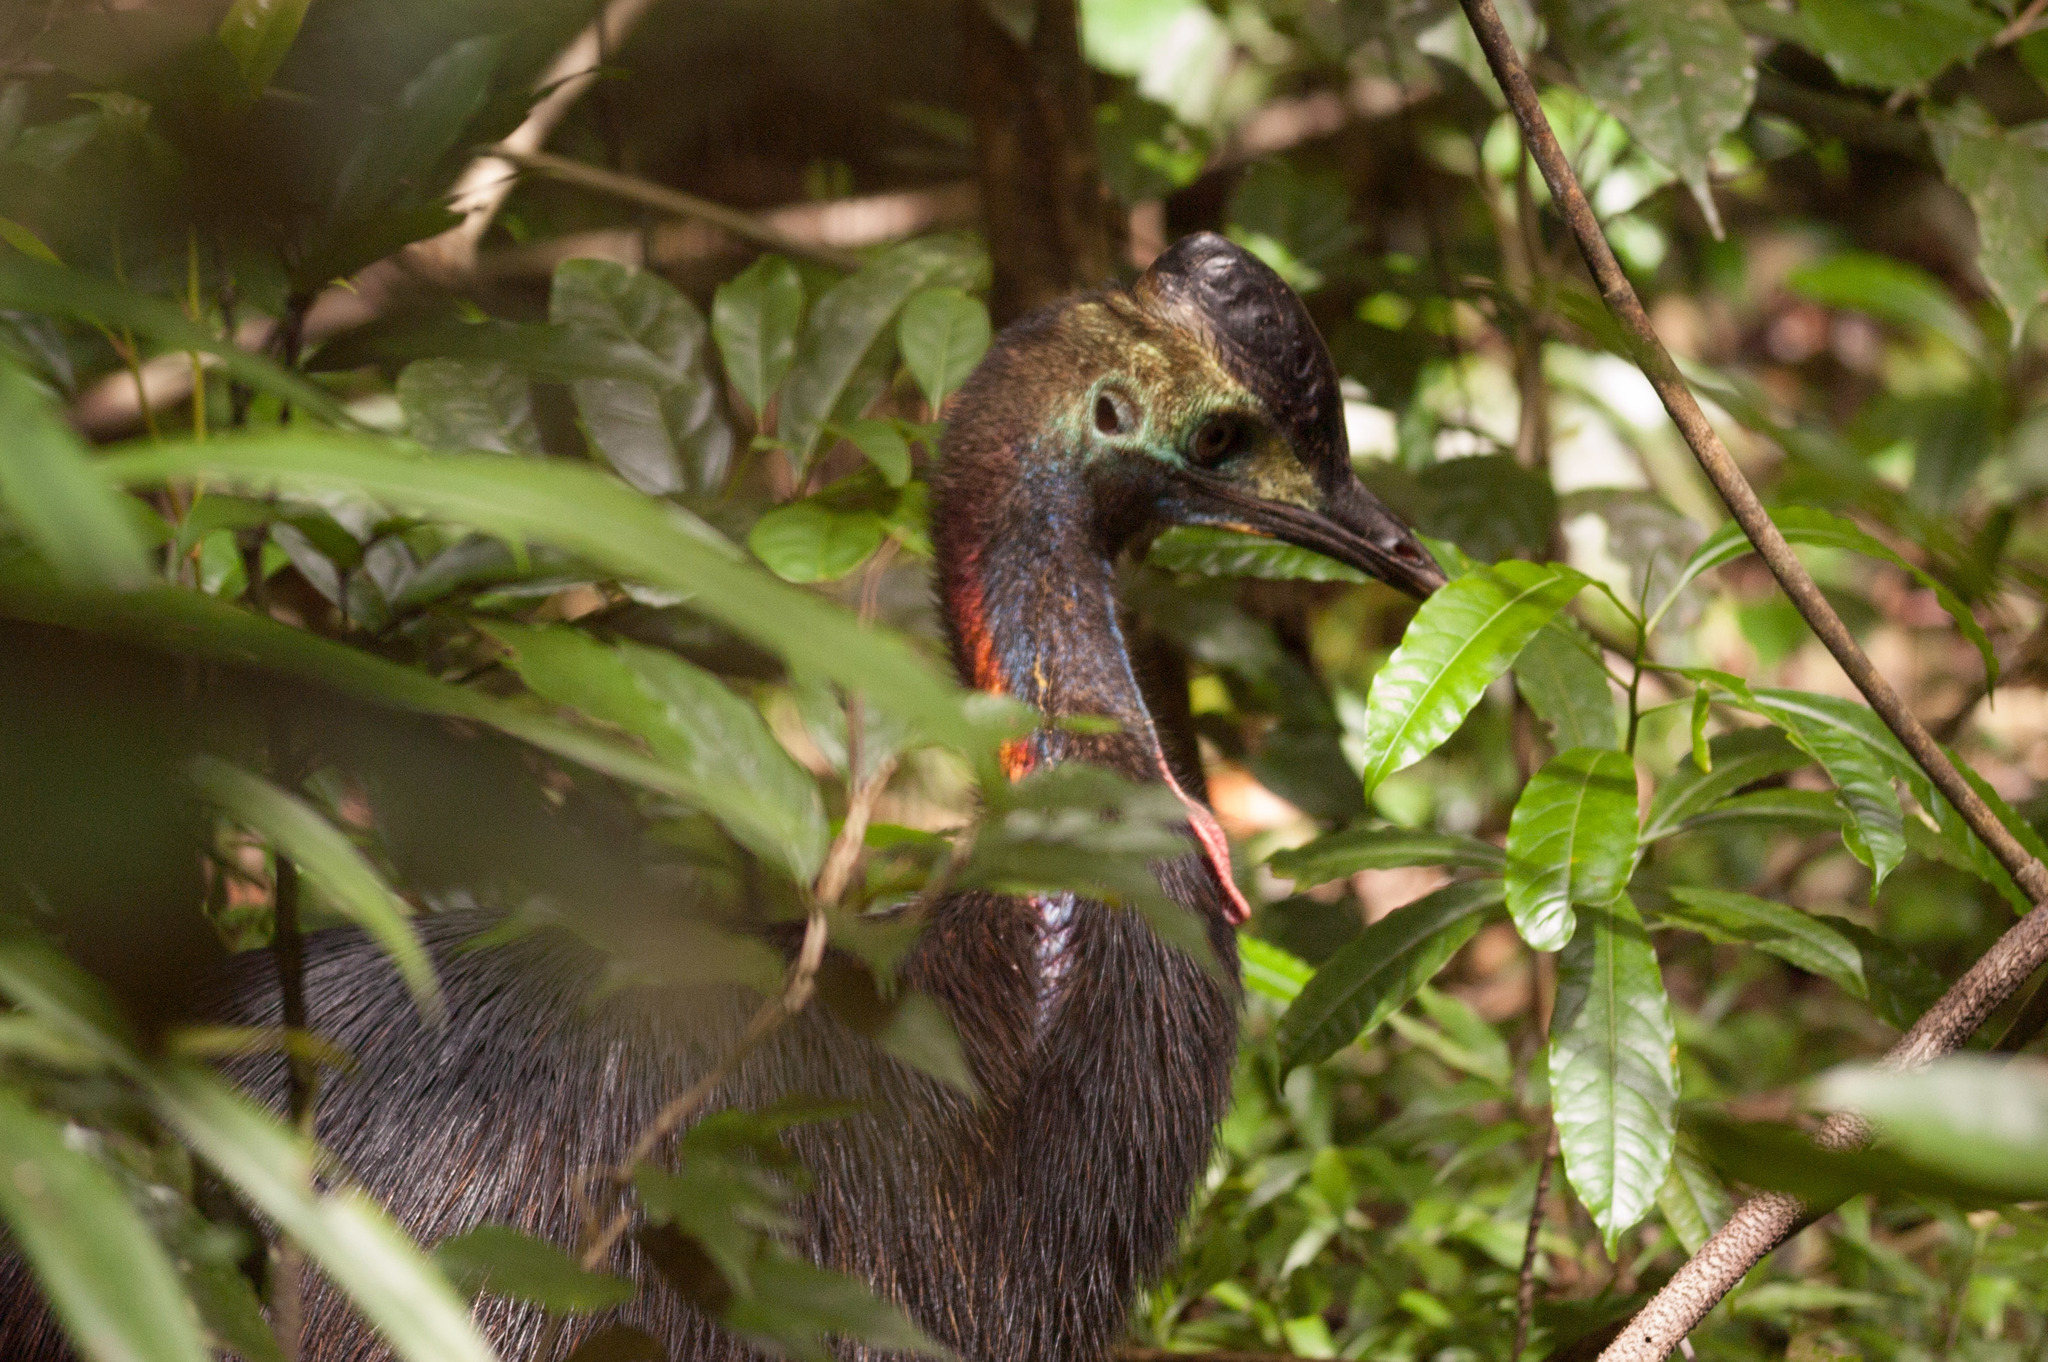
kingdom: Animalia
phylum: Chordata
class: Aves
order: Casuariiformes
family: Casuariidae
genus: Casuarius
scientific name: Casuarius casuarius
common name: Southern cassowary
